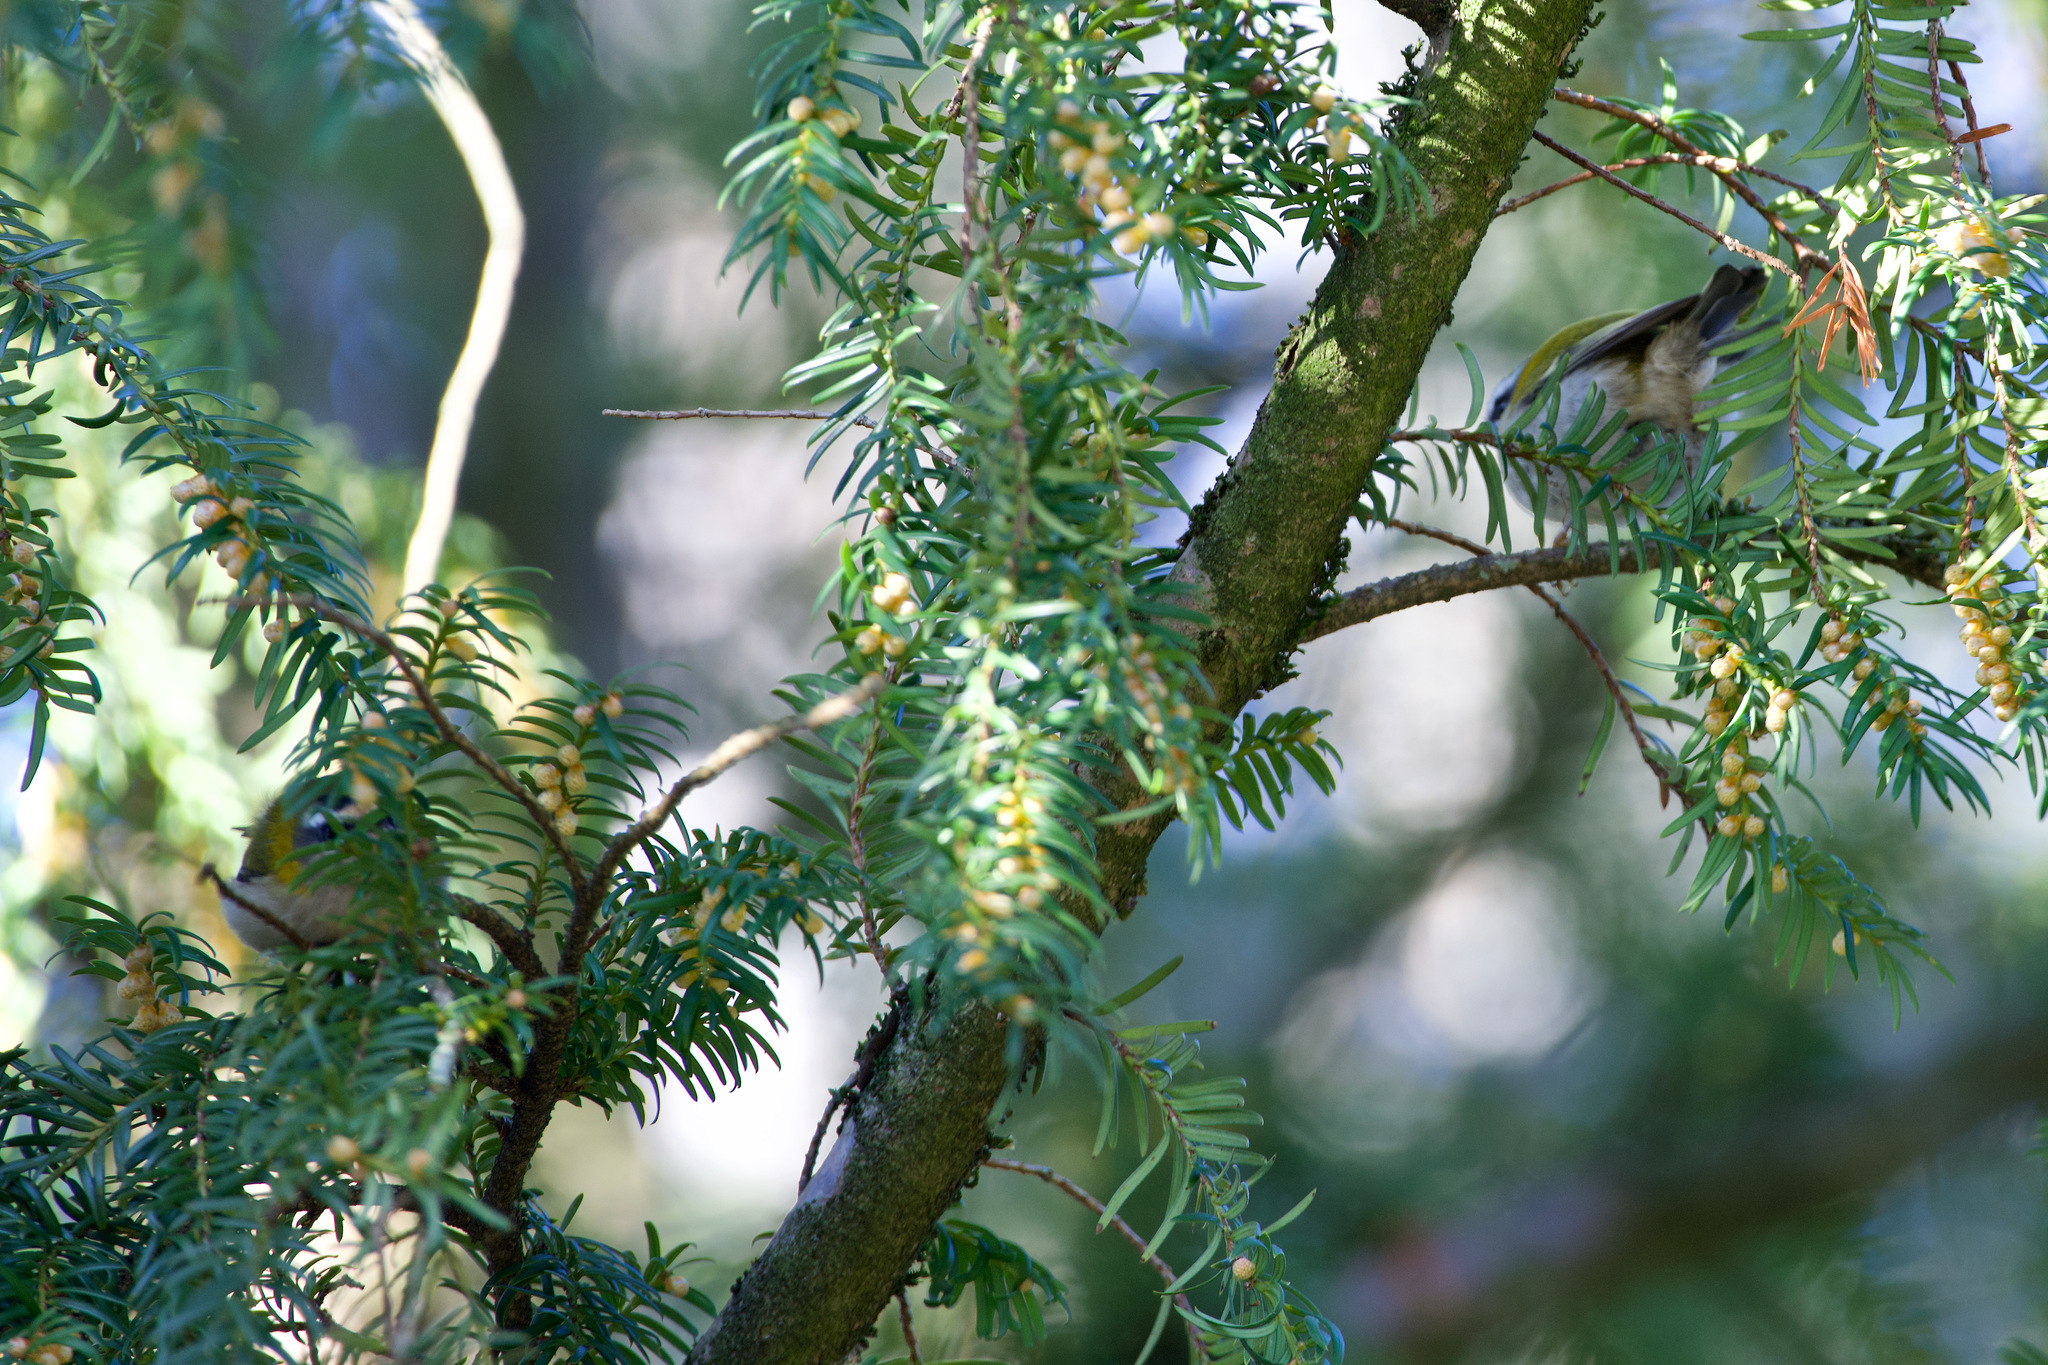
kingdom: Animalia
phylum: Chordata
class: Aves
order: Passeriformes
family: Regulidae
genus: Regulus
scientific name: Regulus ignicapilla
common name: Firecrest
